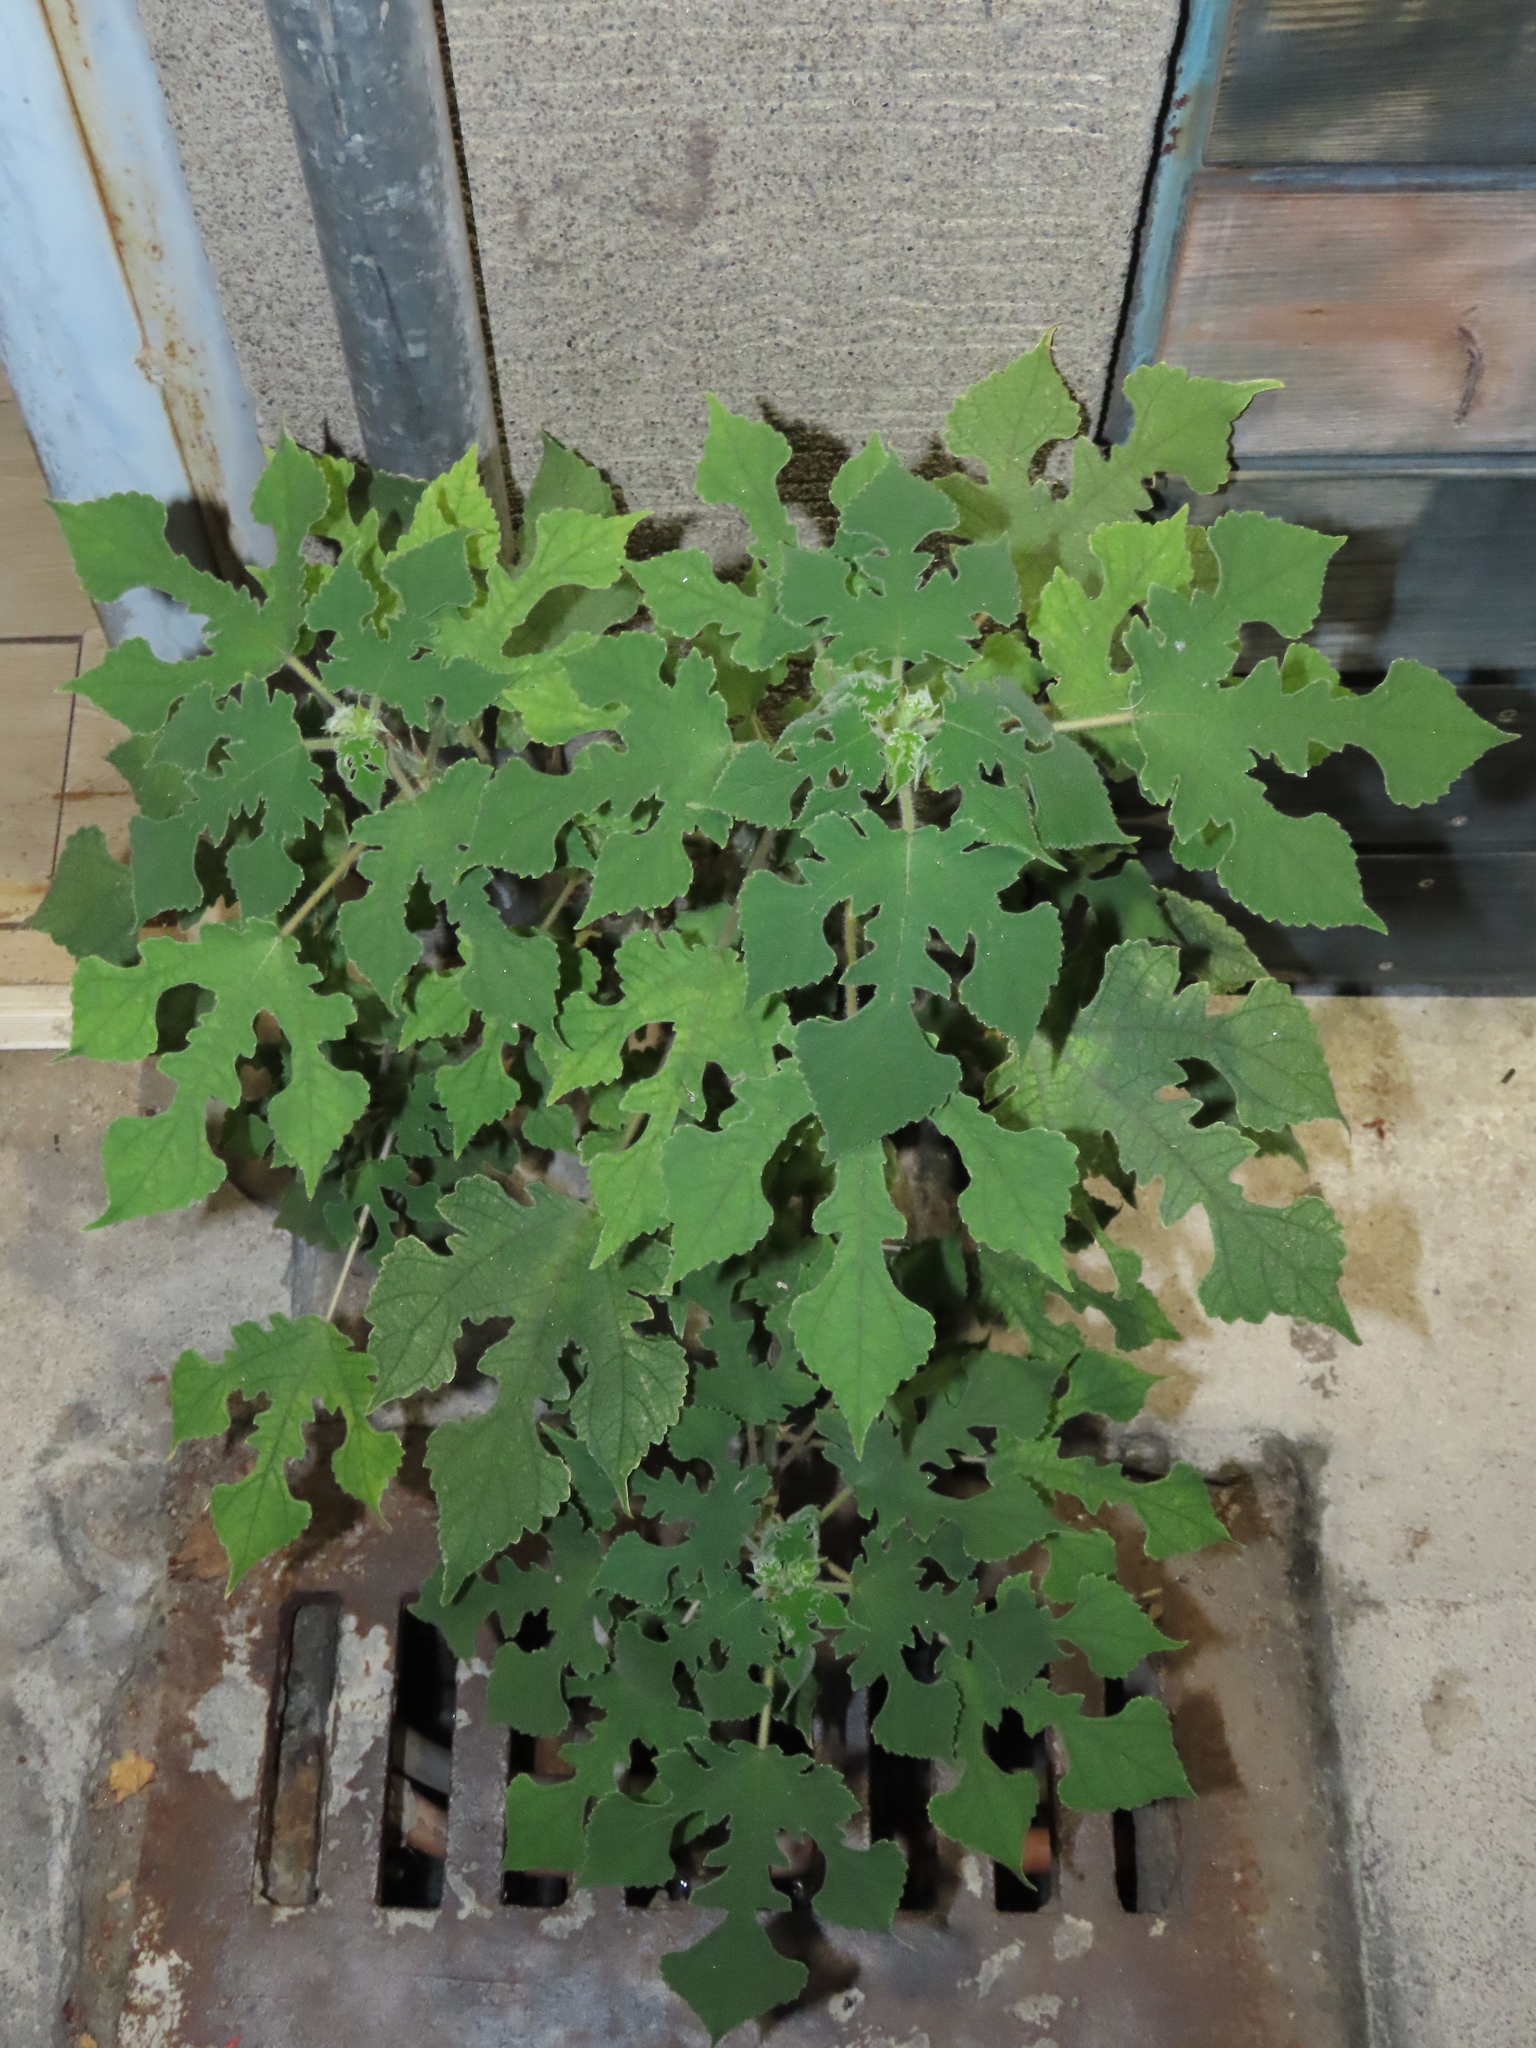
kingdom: Plantae
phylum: Tracheophyta
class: Magnoliopsida
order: Rosales
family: Moraceae
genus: Broussonetia
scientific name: Broussonetia papyrifera
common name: Paper mulberry
